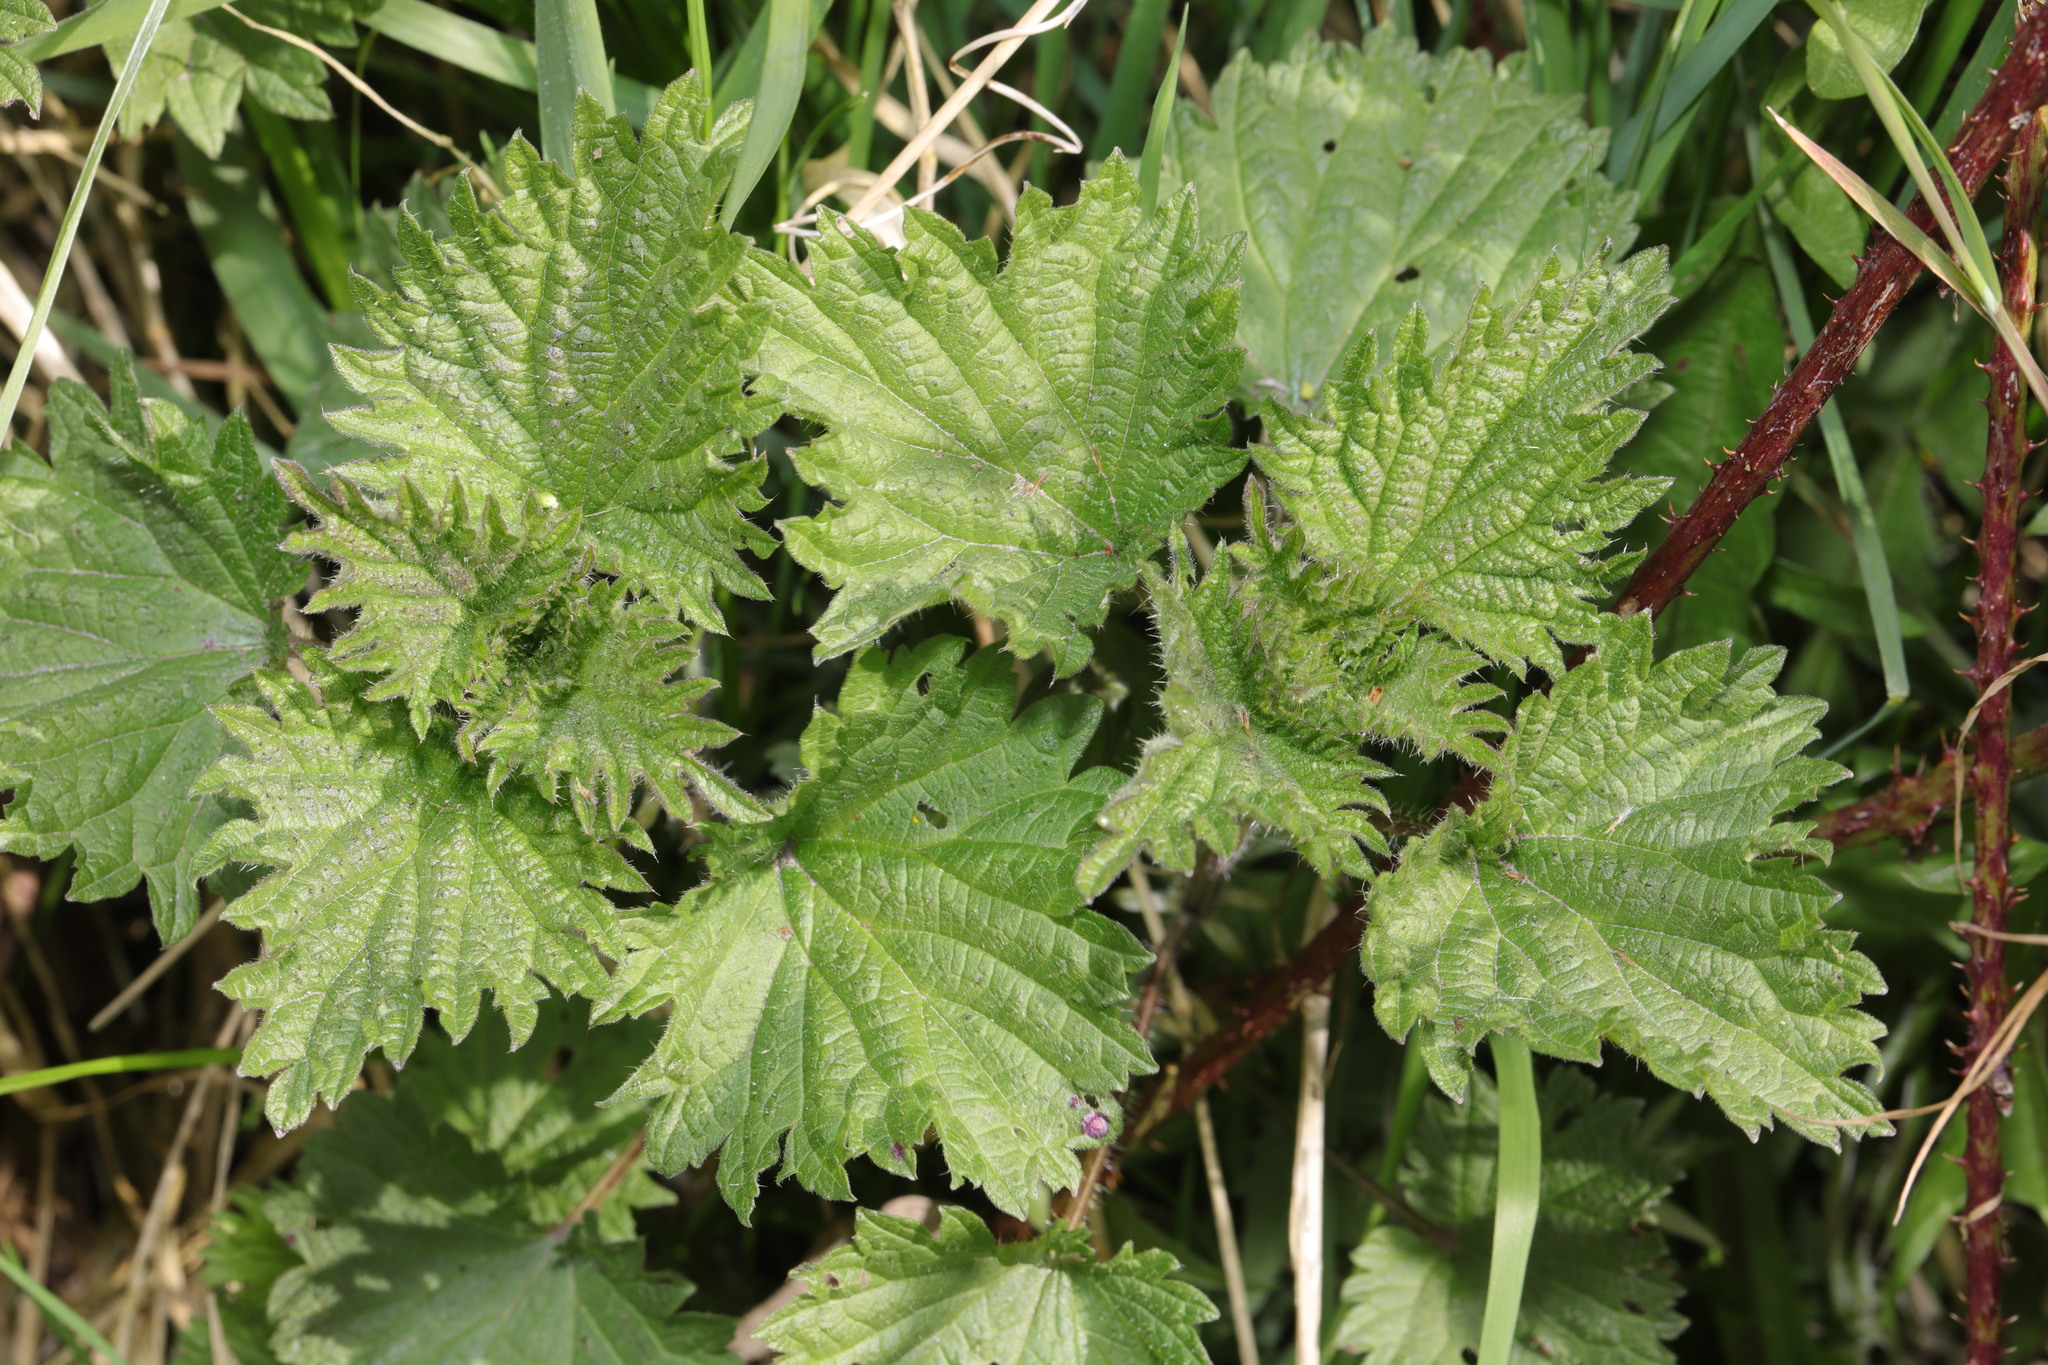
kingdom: Plantae
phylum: Tracheophyta
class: Magnoliopsida
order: Rosales
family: Urticaceae
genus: Urtica
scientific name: Urtica dioica
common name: Common nettle
